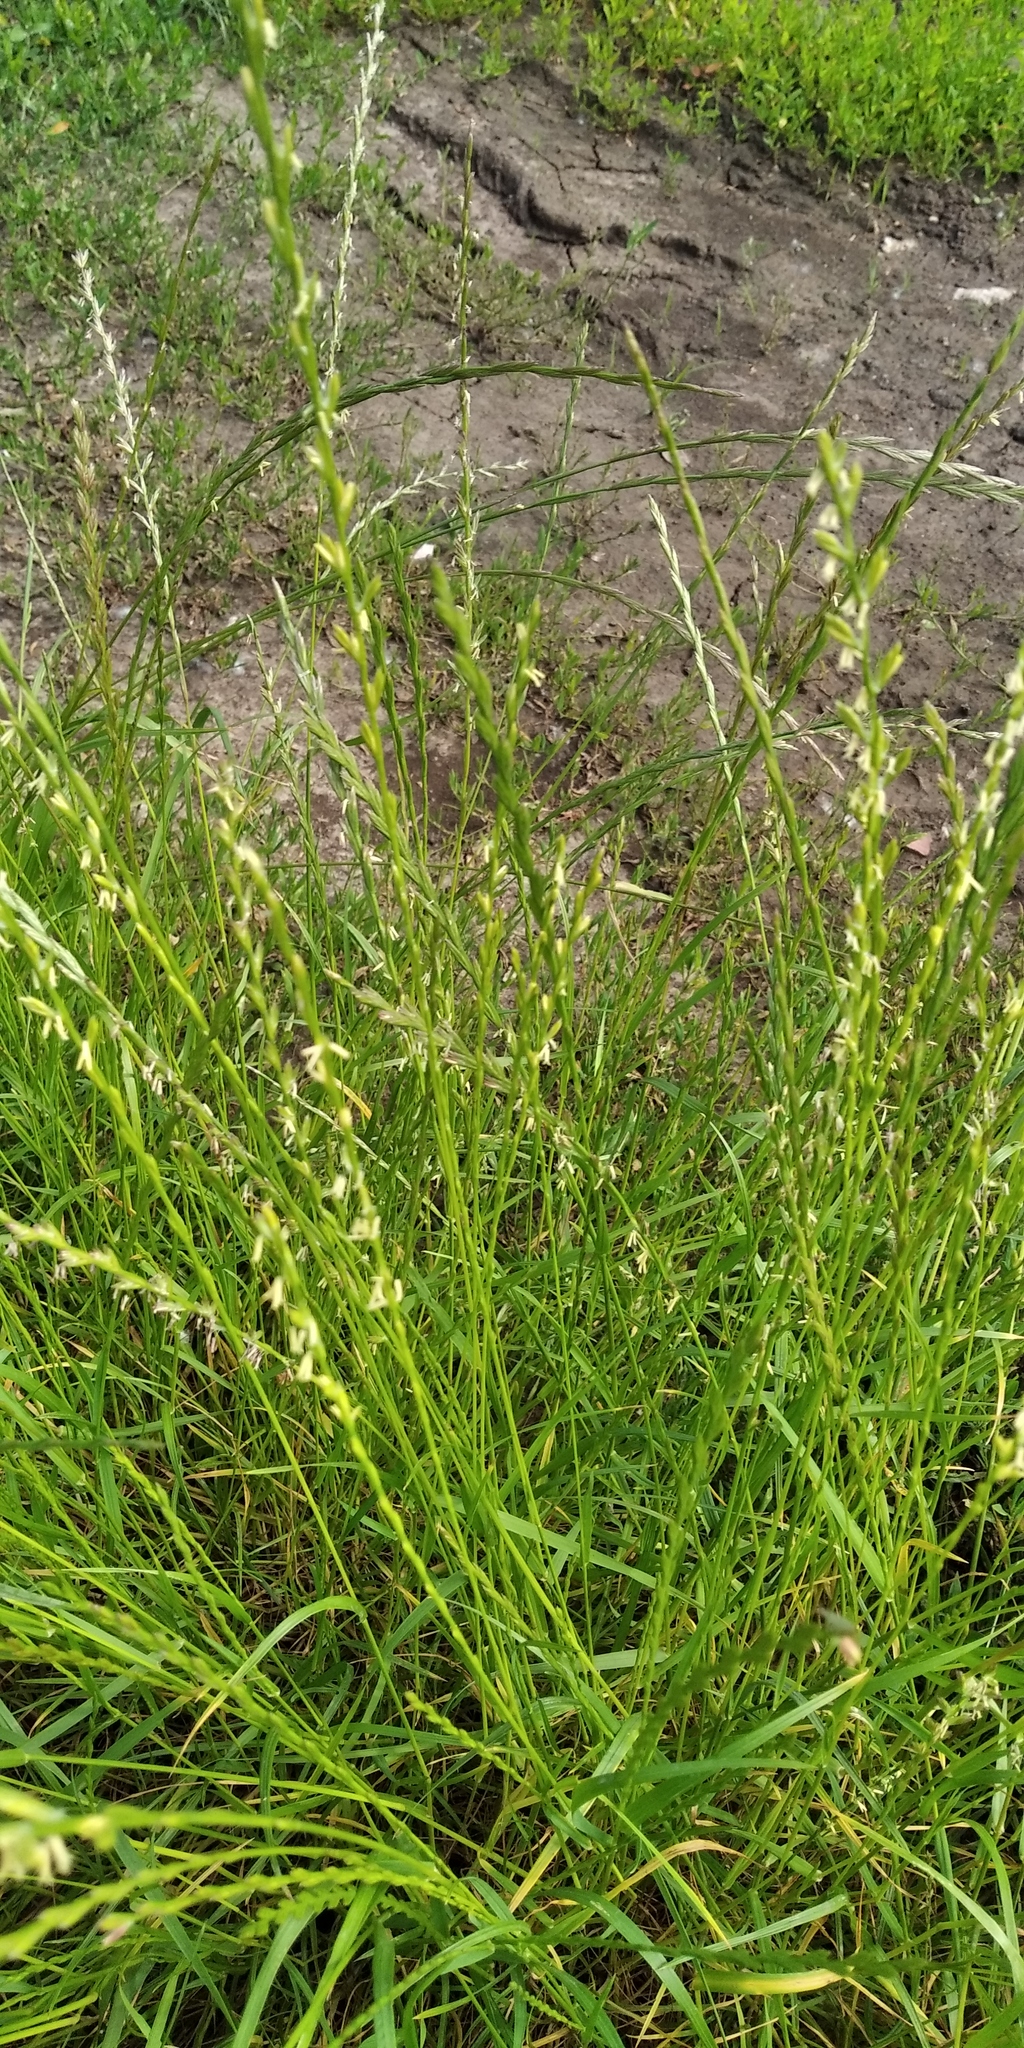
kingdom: Plantae
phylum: Tracheophyta
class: Liliopsida
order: Poales
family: Poaceae
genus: Lolium
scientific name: Lolium perenne
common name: Perennial ryegrass
